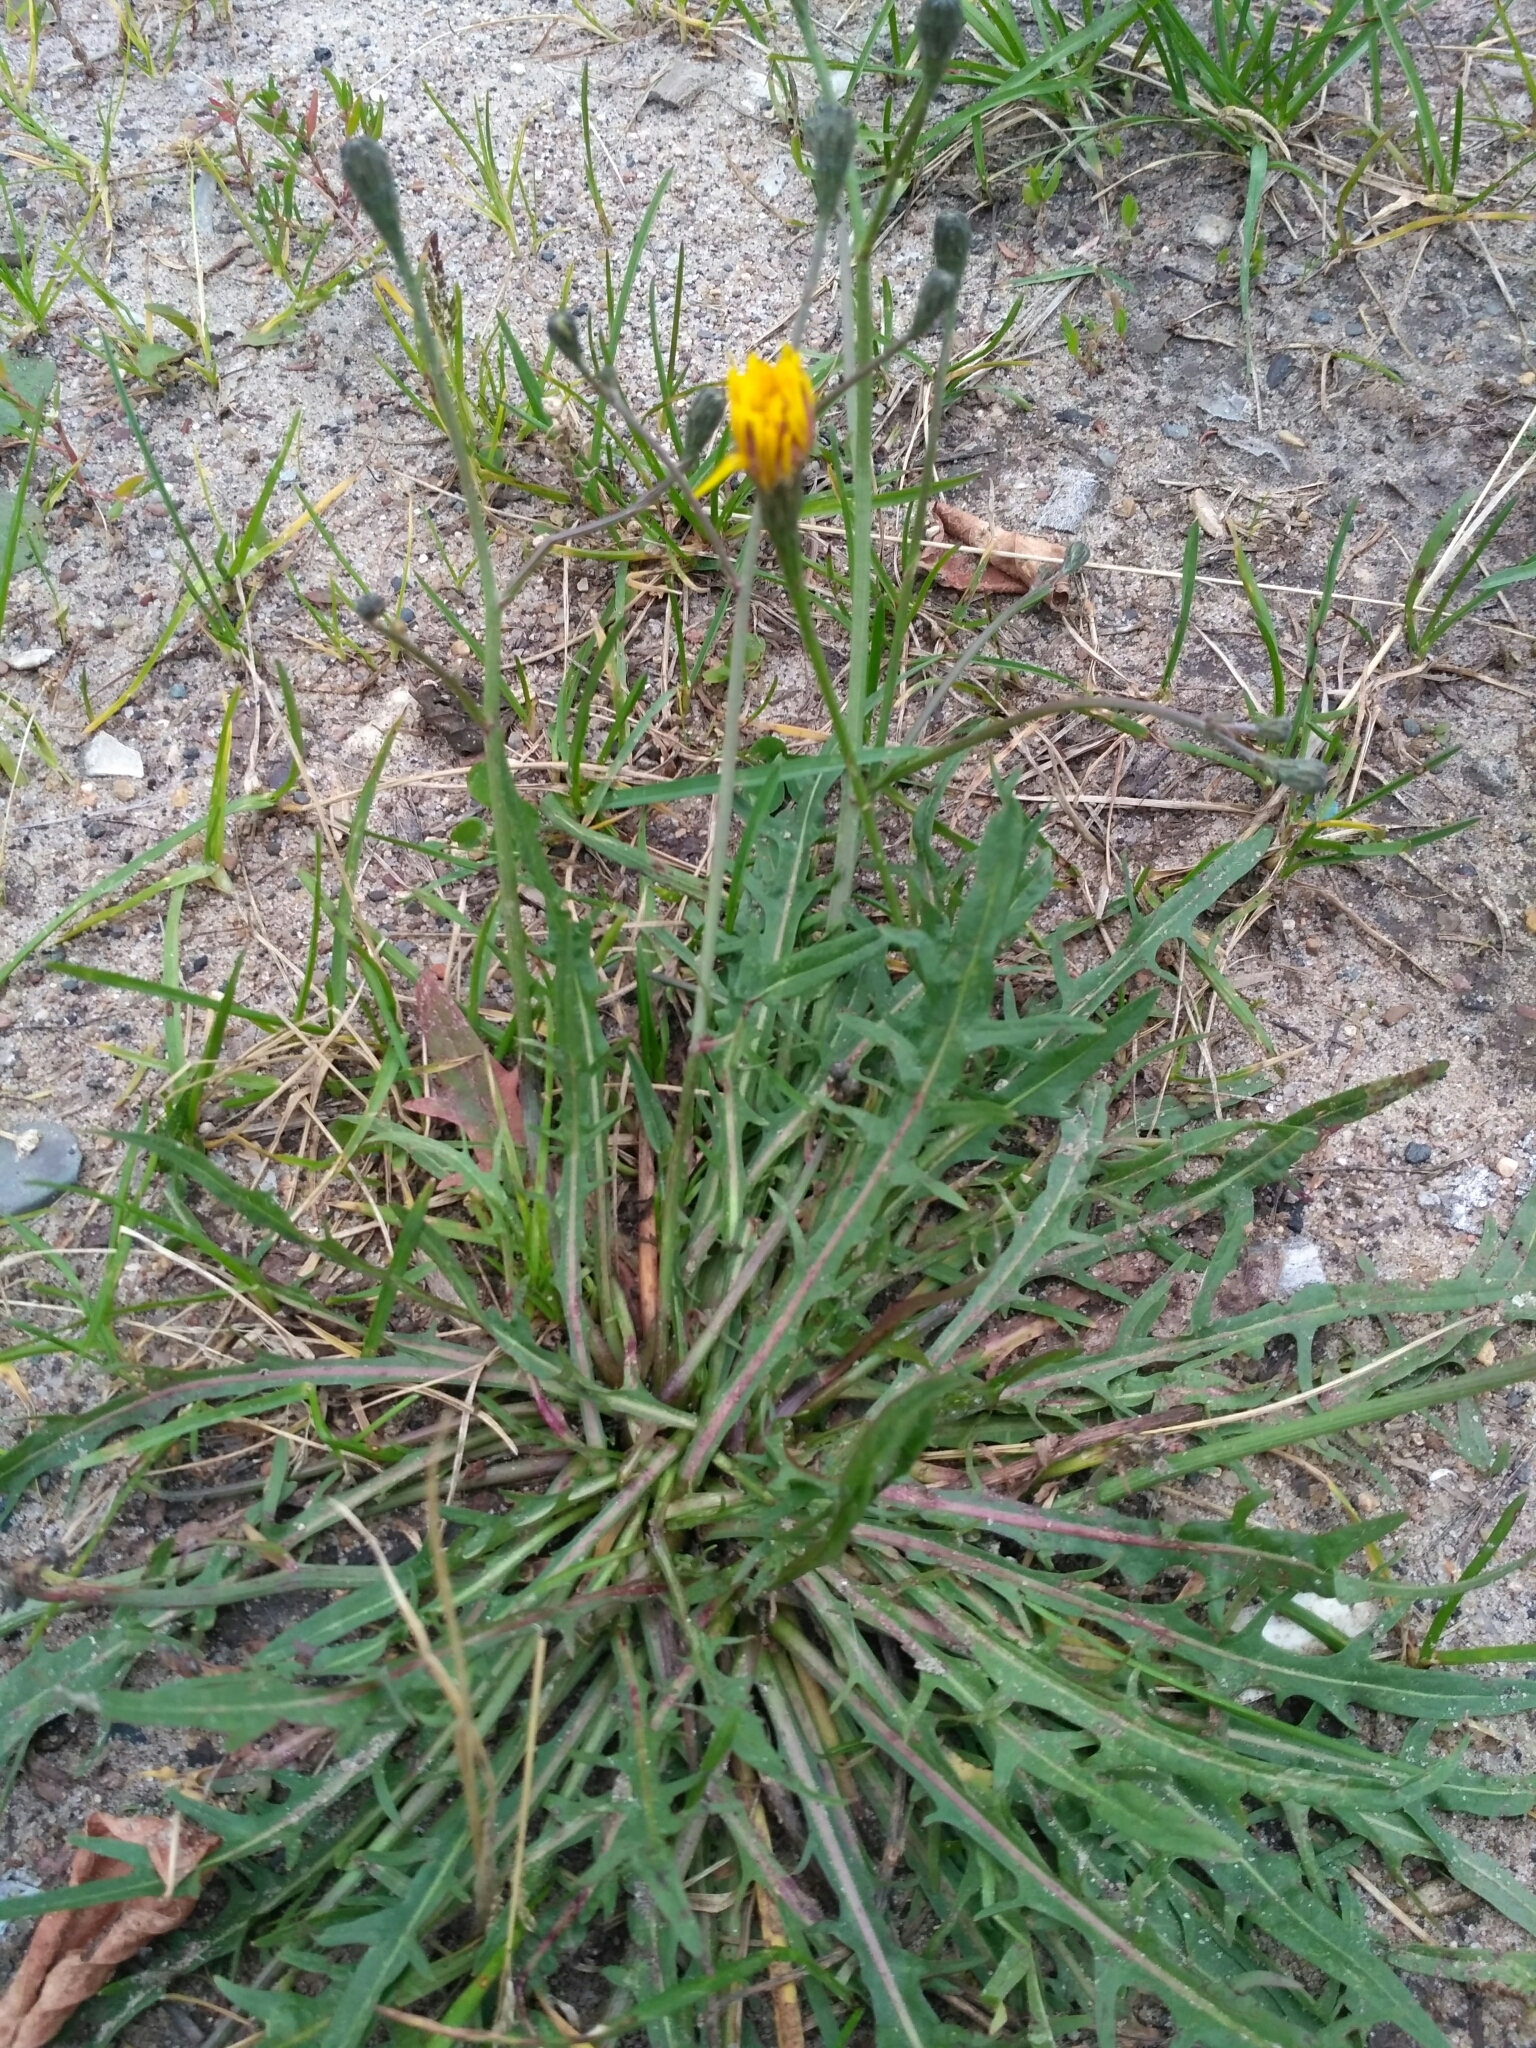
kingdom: Plantae
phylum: Tracheophyta
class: Magnoliopsida
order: Asterales
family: Asteraceae
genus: Scorzoneroides
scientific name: Scorzoneroides autumnalis
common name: Autumn hawkbit
